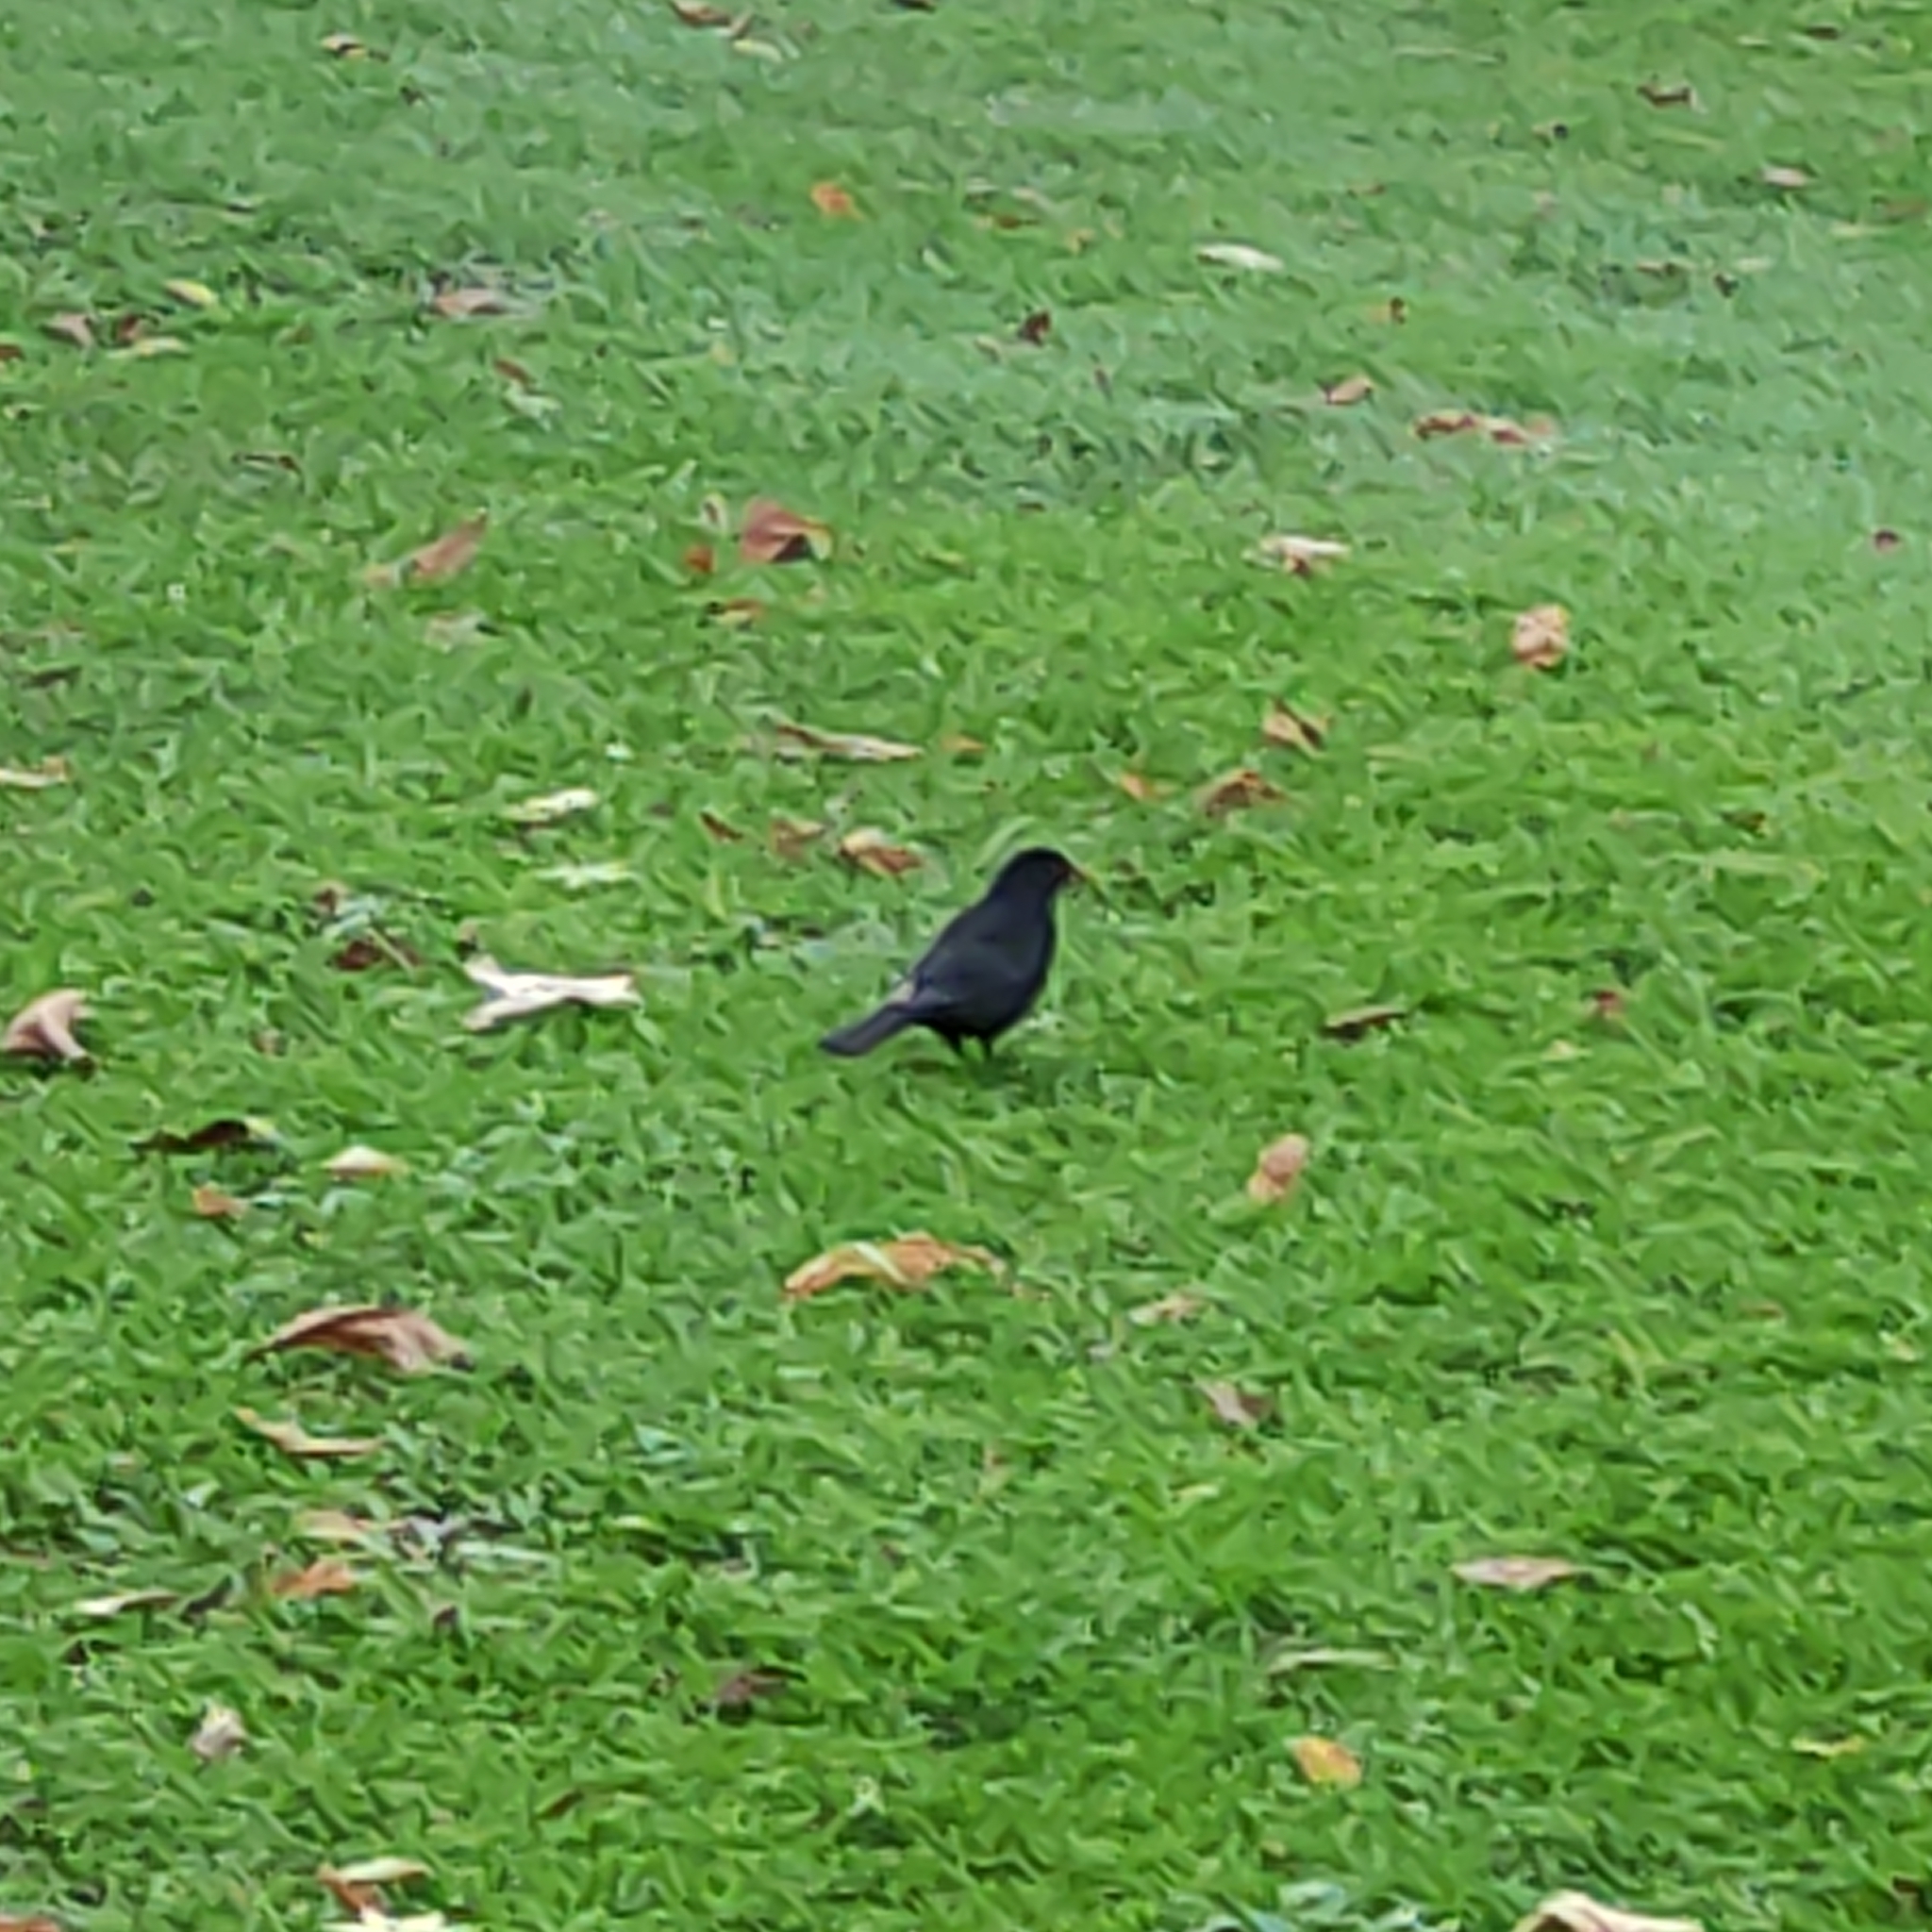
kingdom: Animalia
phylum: Chordata
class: Aves
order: Passeriformes
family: Turdidae
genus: Turdus
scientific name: Turdus merula
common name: Common blackbird
